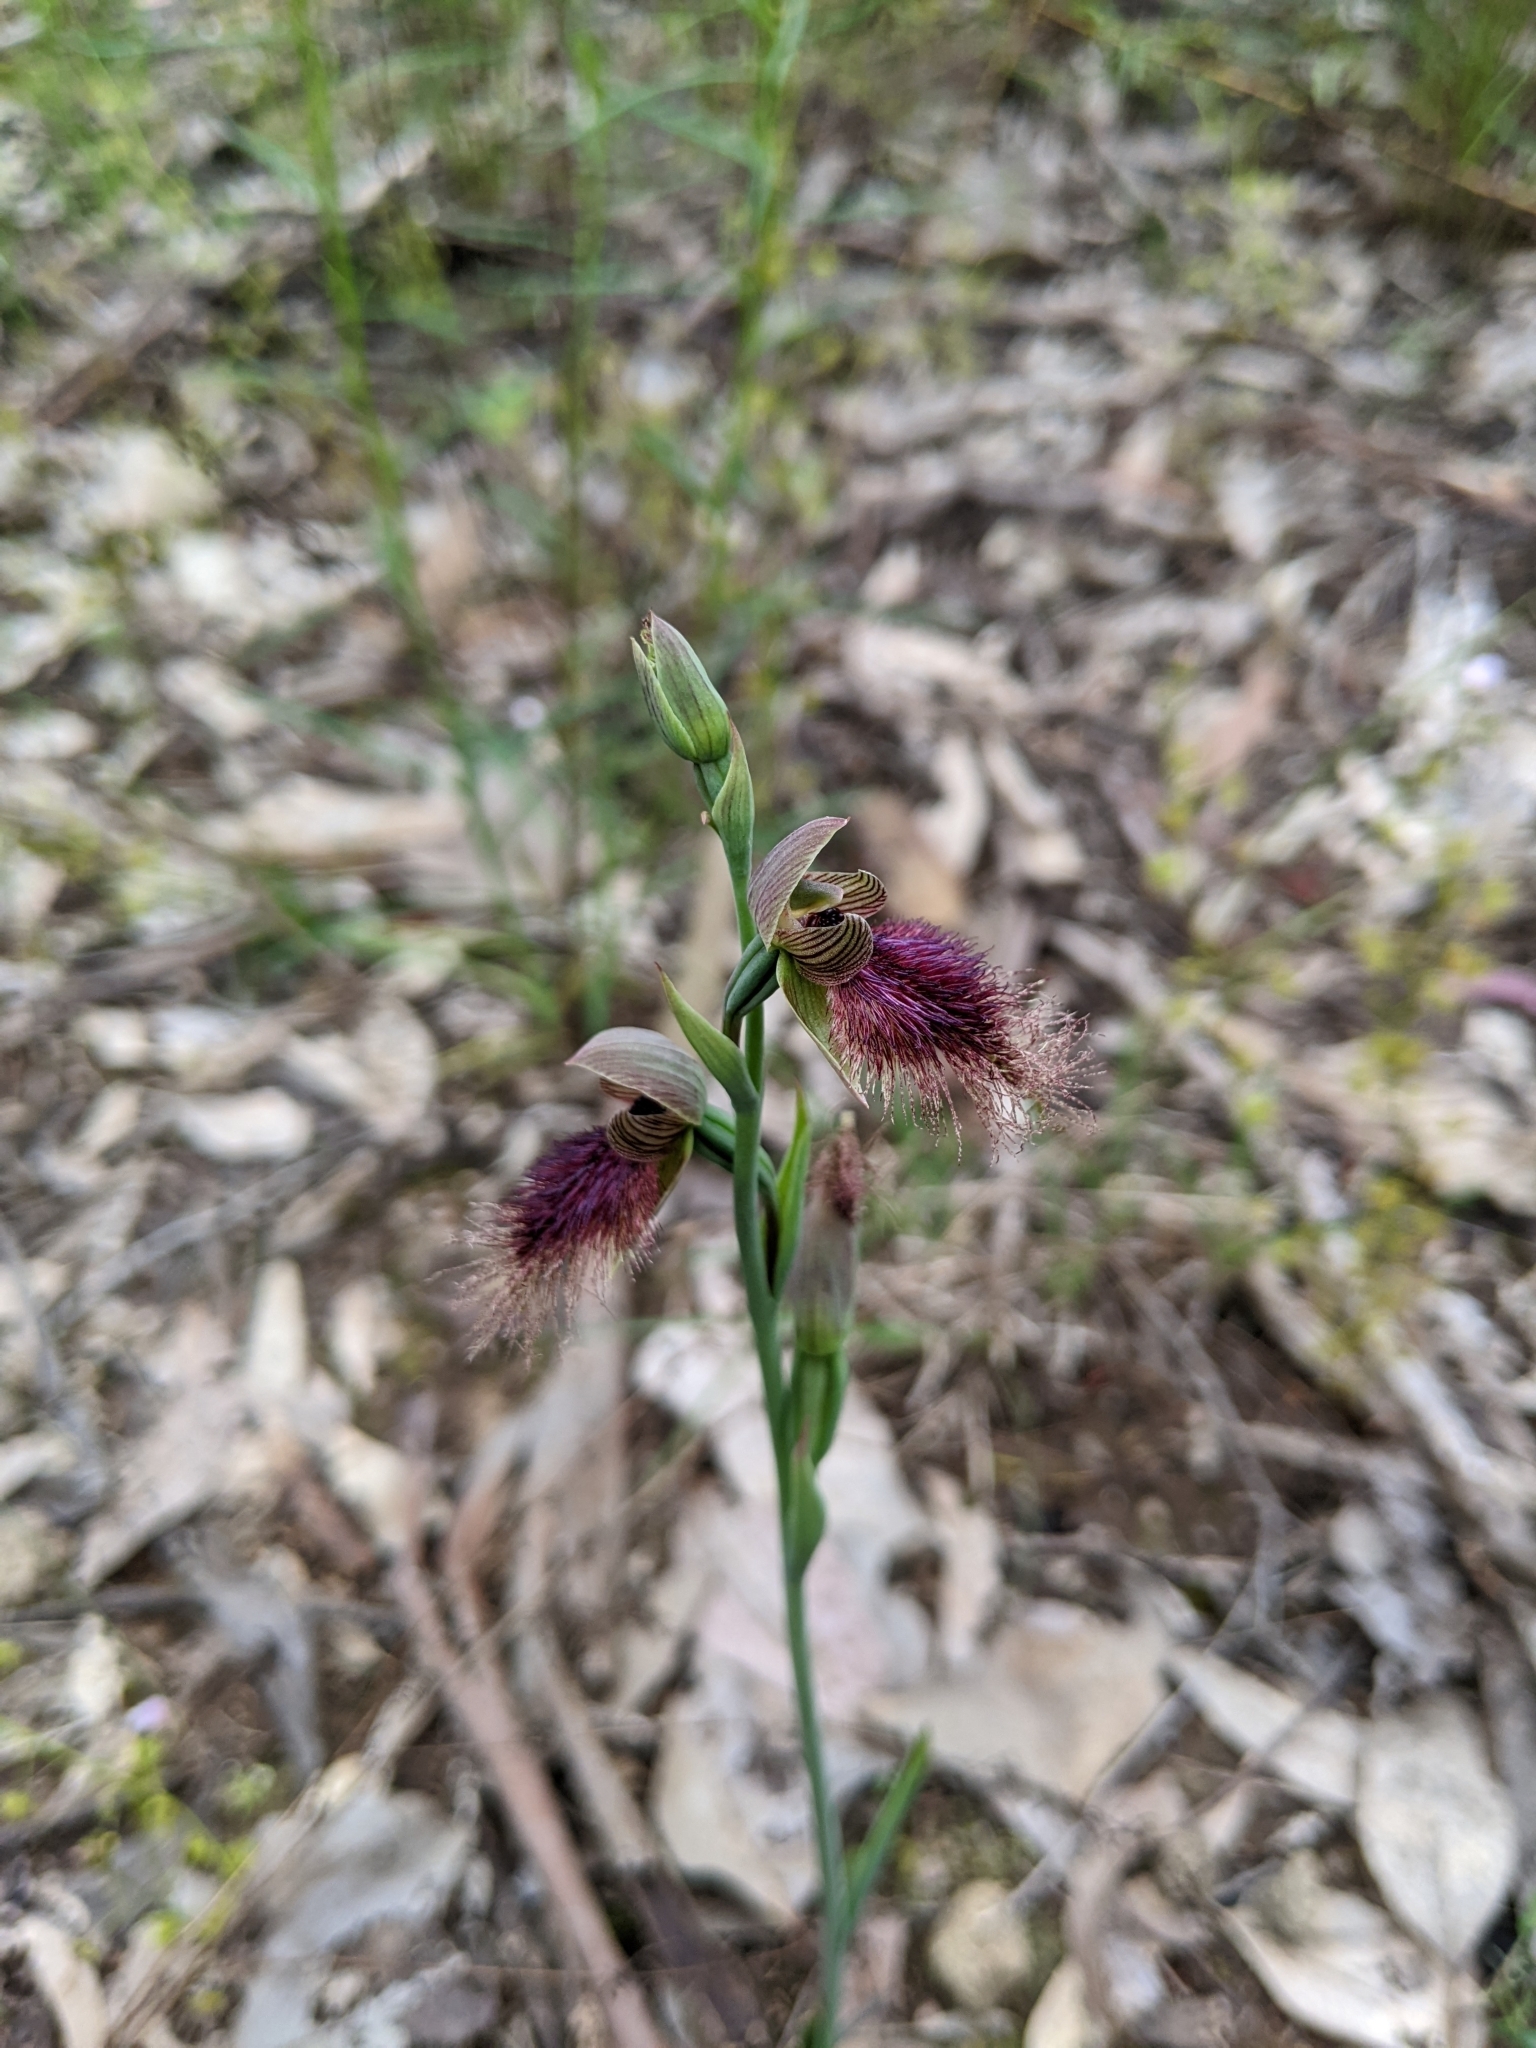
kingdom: Plantae
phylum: Tracheophyta
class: Liliopsida
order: Asparagales
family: Orchidaceae
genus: Calochilus
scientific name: Calochilus robertsonii
